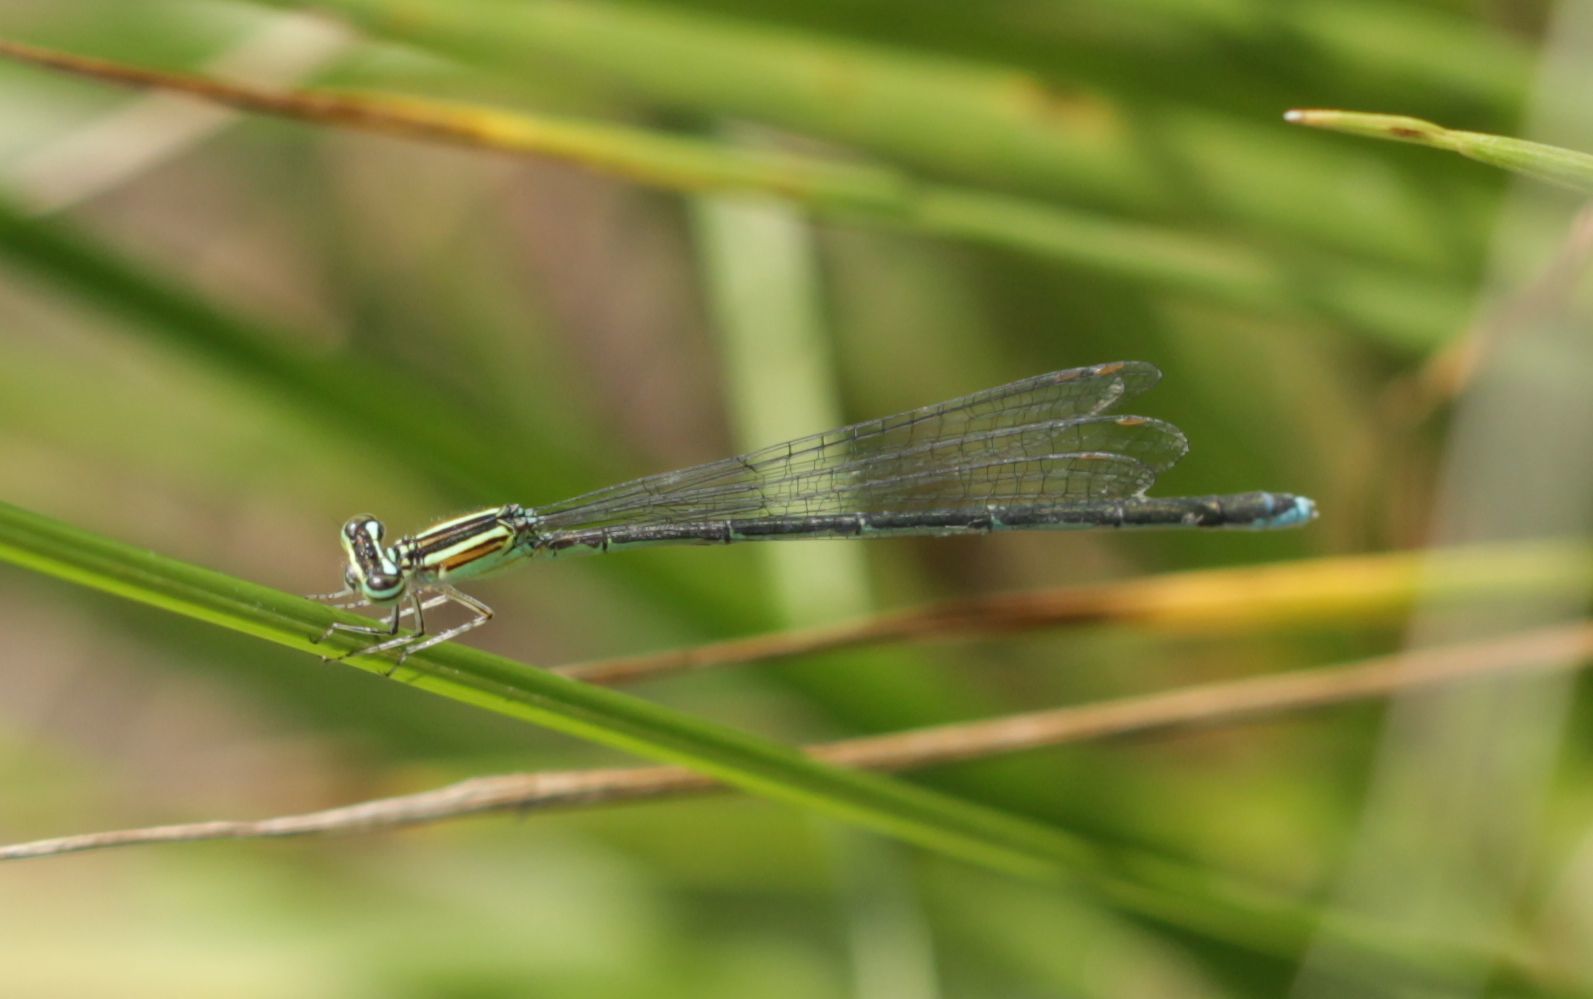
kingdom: Animalia
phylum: Arthropoda
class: Insecta
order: Odonata
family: Coenagrionidae
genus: Enallagma
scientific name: Enallagma exsulans
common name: Stream bluet
